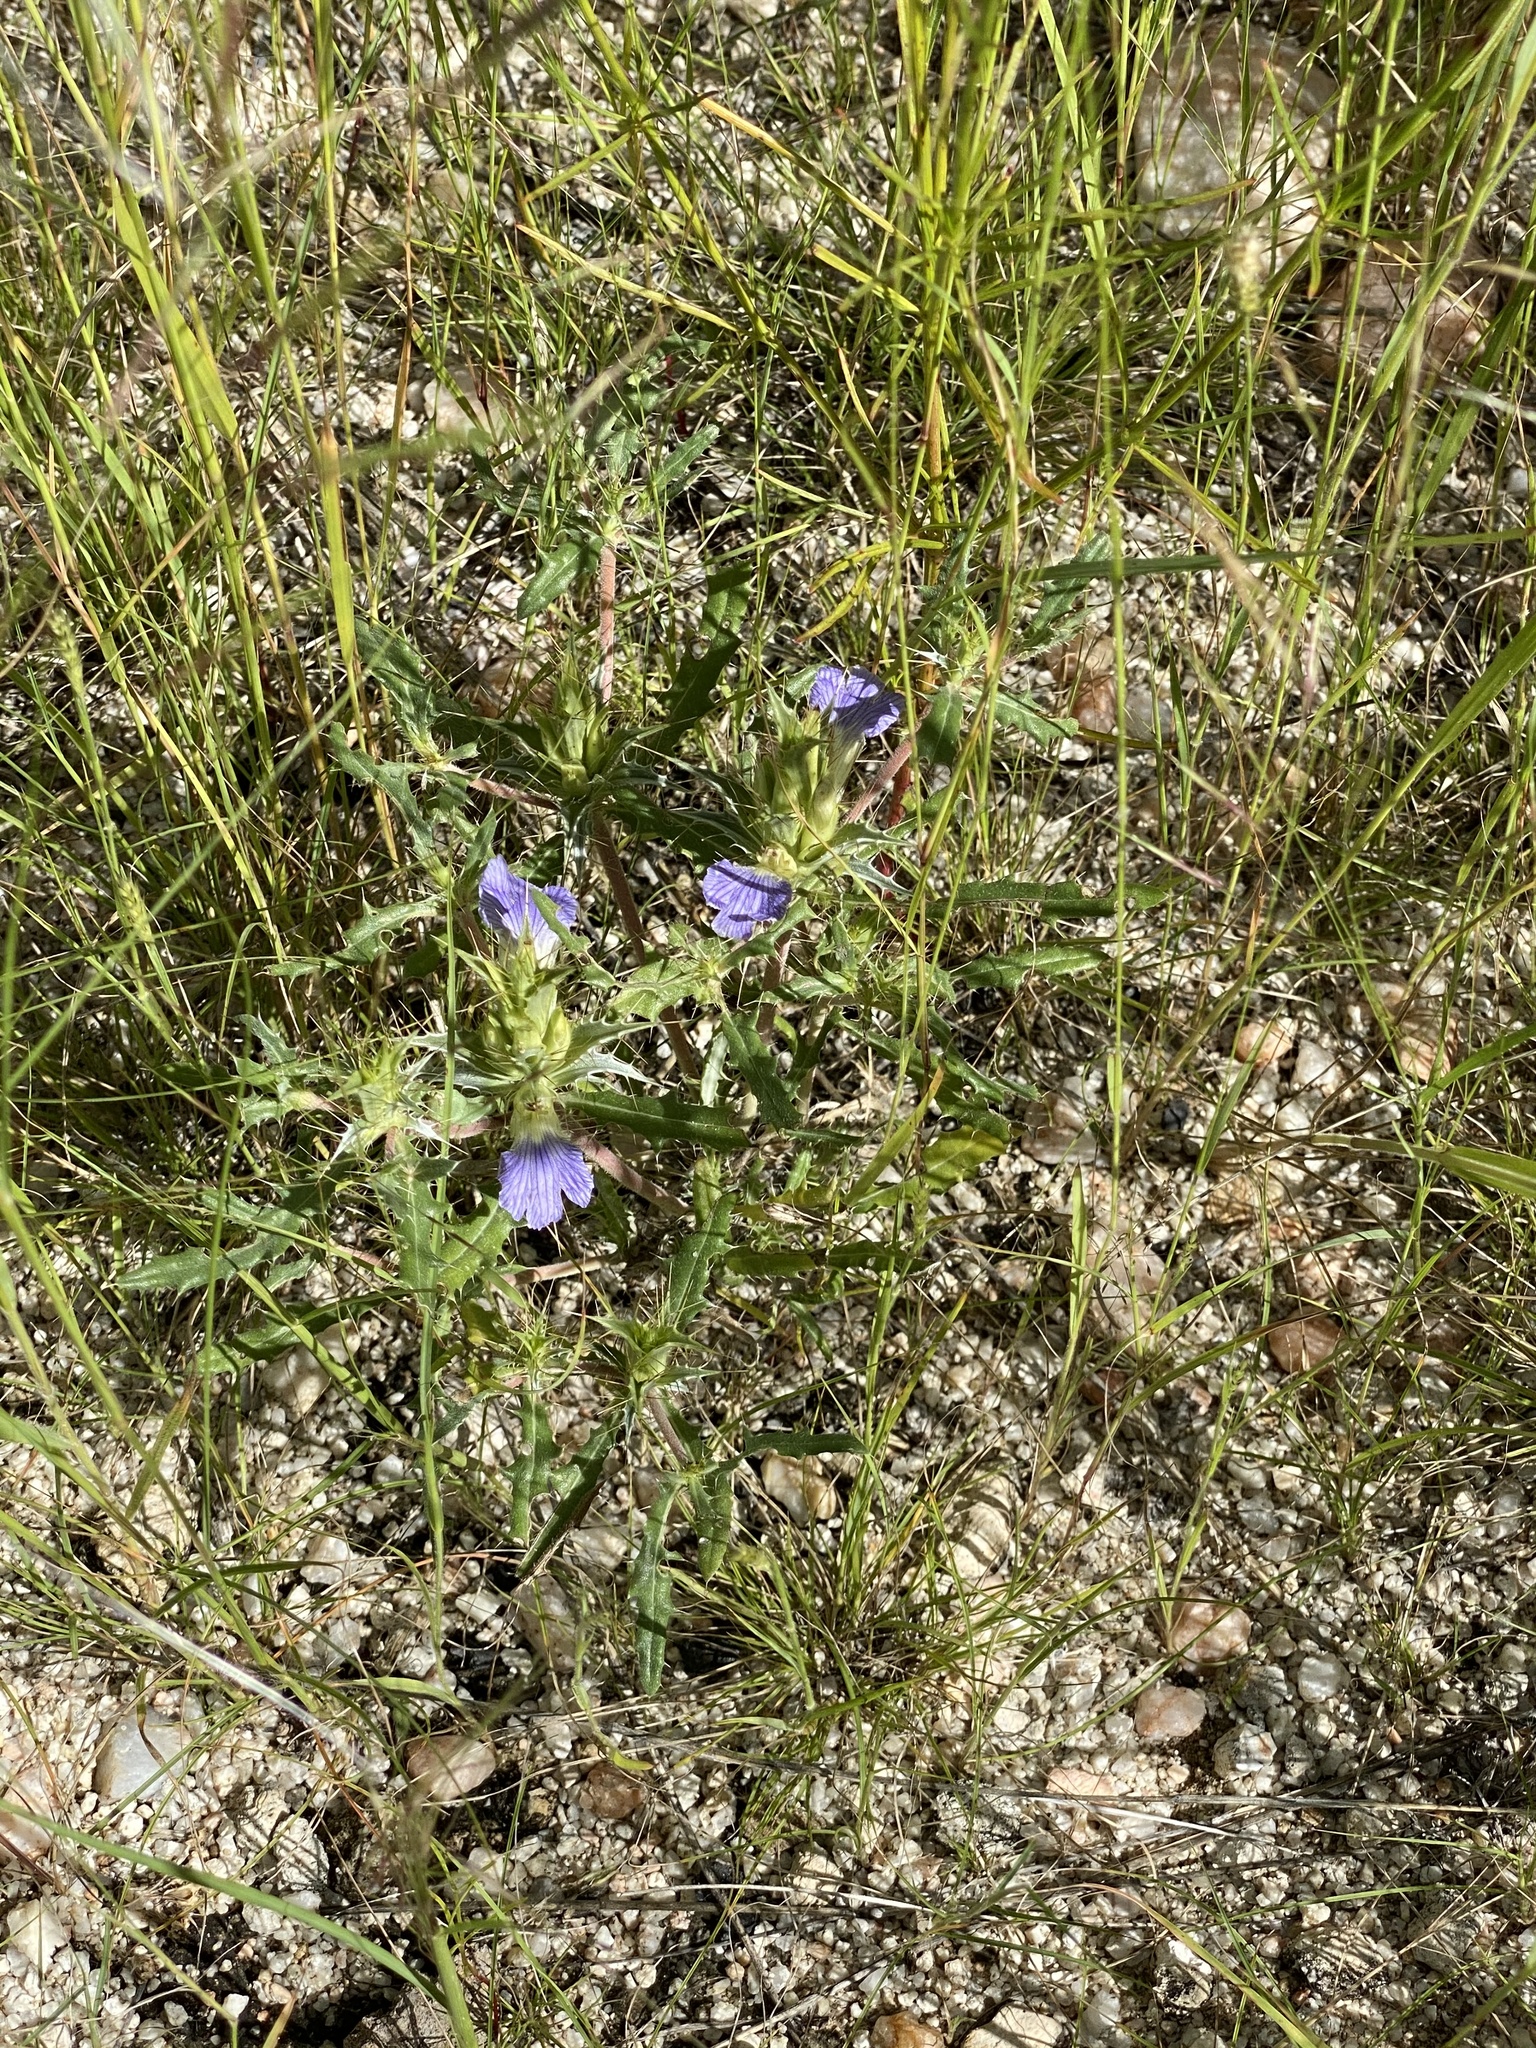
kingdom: Plantae
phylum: Tracheophyta
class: Magnoliopsida
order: Lamiales
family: Acanthaceae
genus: Blepharis
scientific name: Blepharis obmitrata
